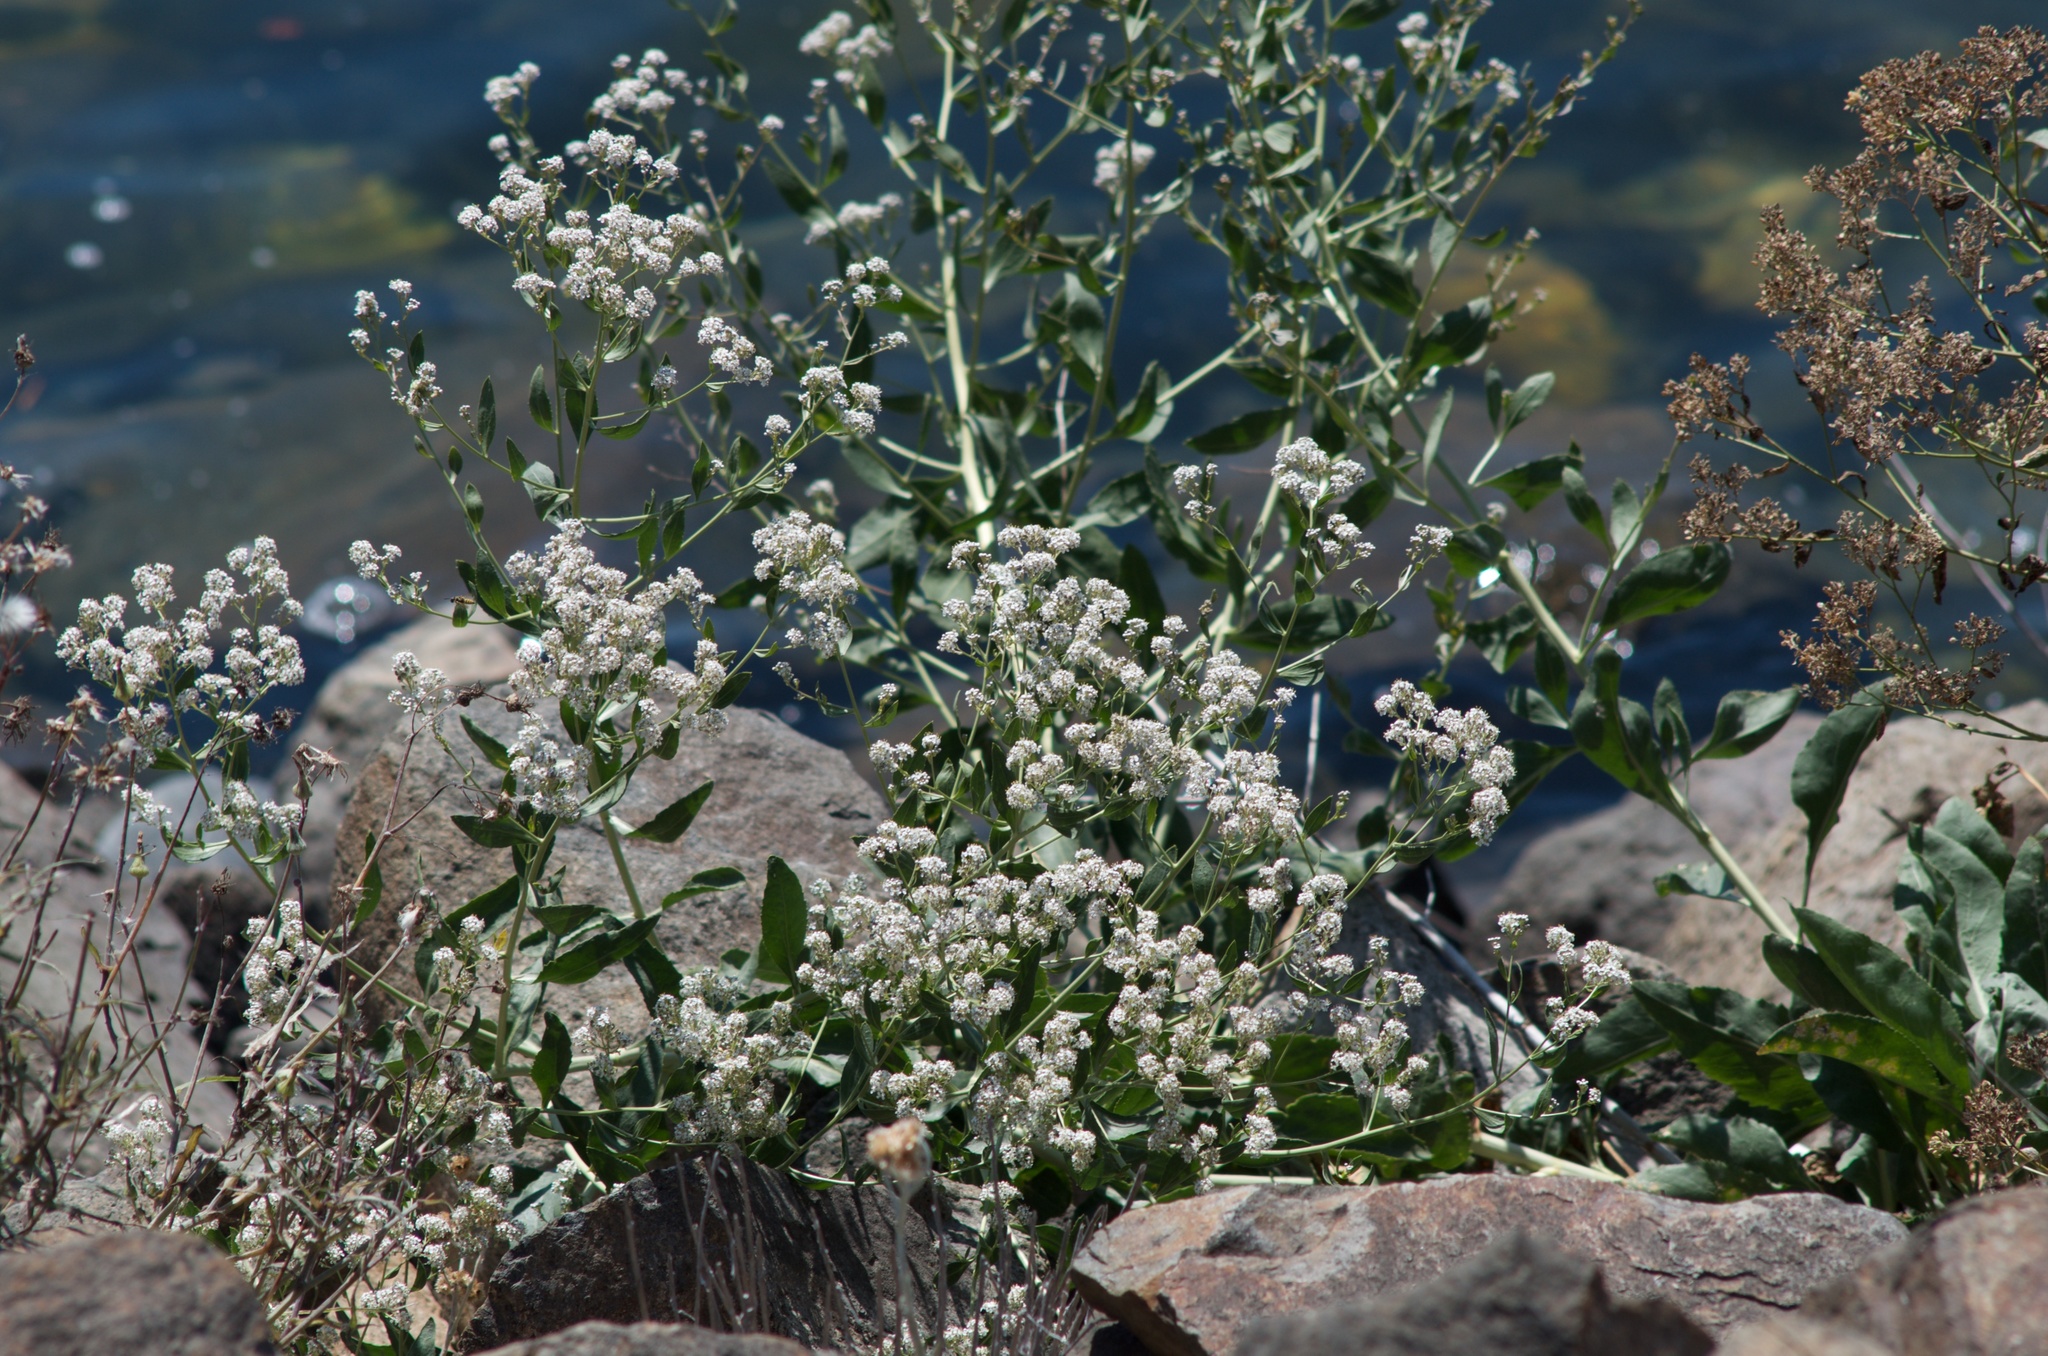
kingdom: Plantae
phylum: Tracheophyta
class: Magnoliopsida
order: Brassicales
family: Brassicaceae
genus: Lepidium
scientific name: Lepidium latifolium
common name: Dittander
